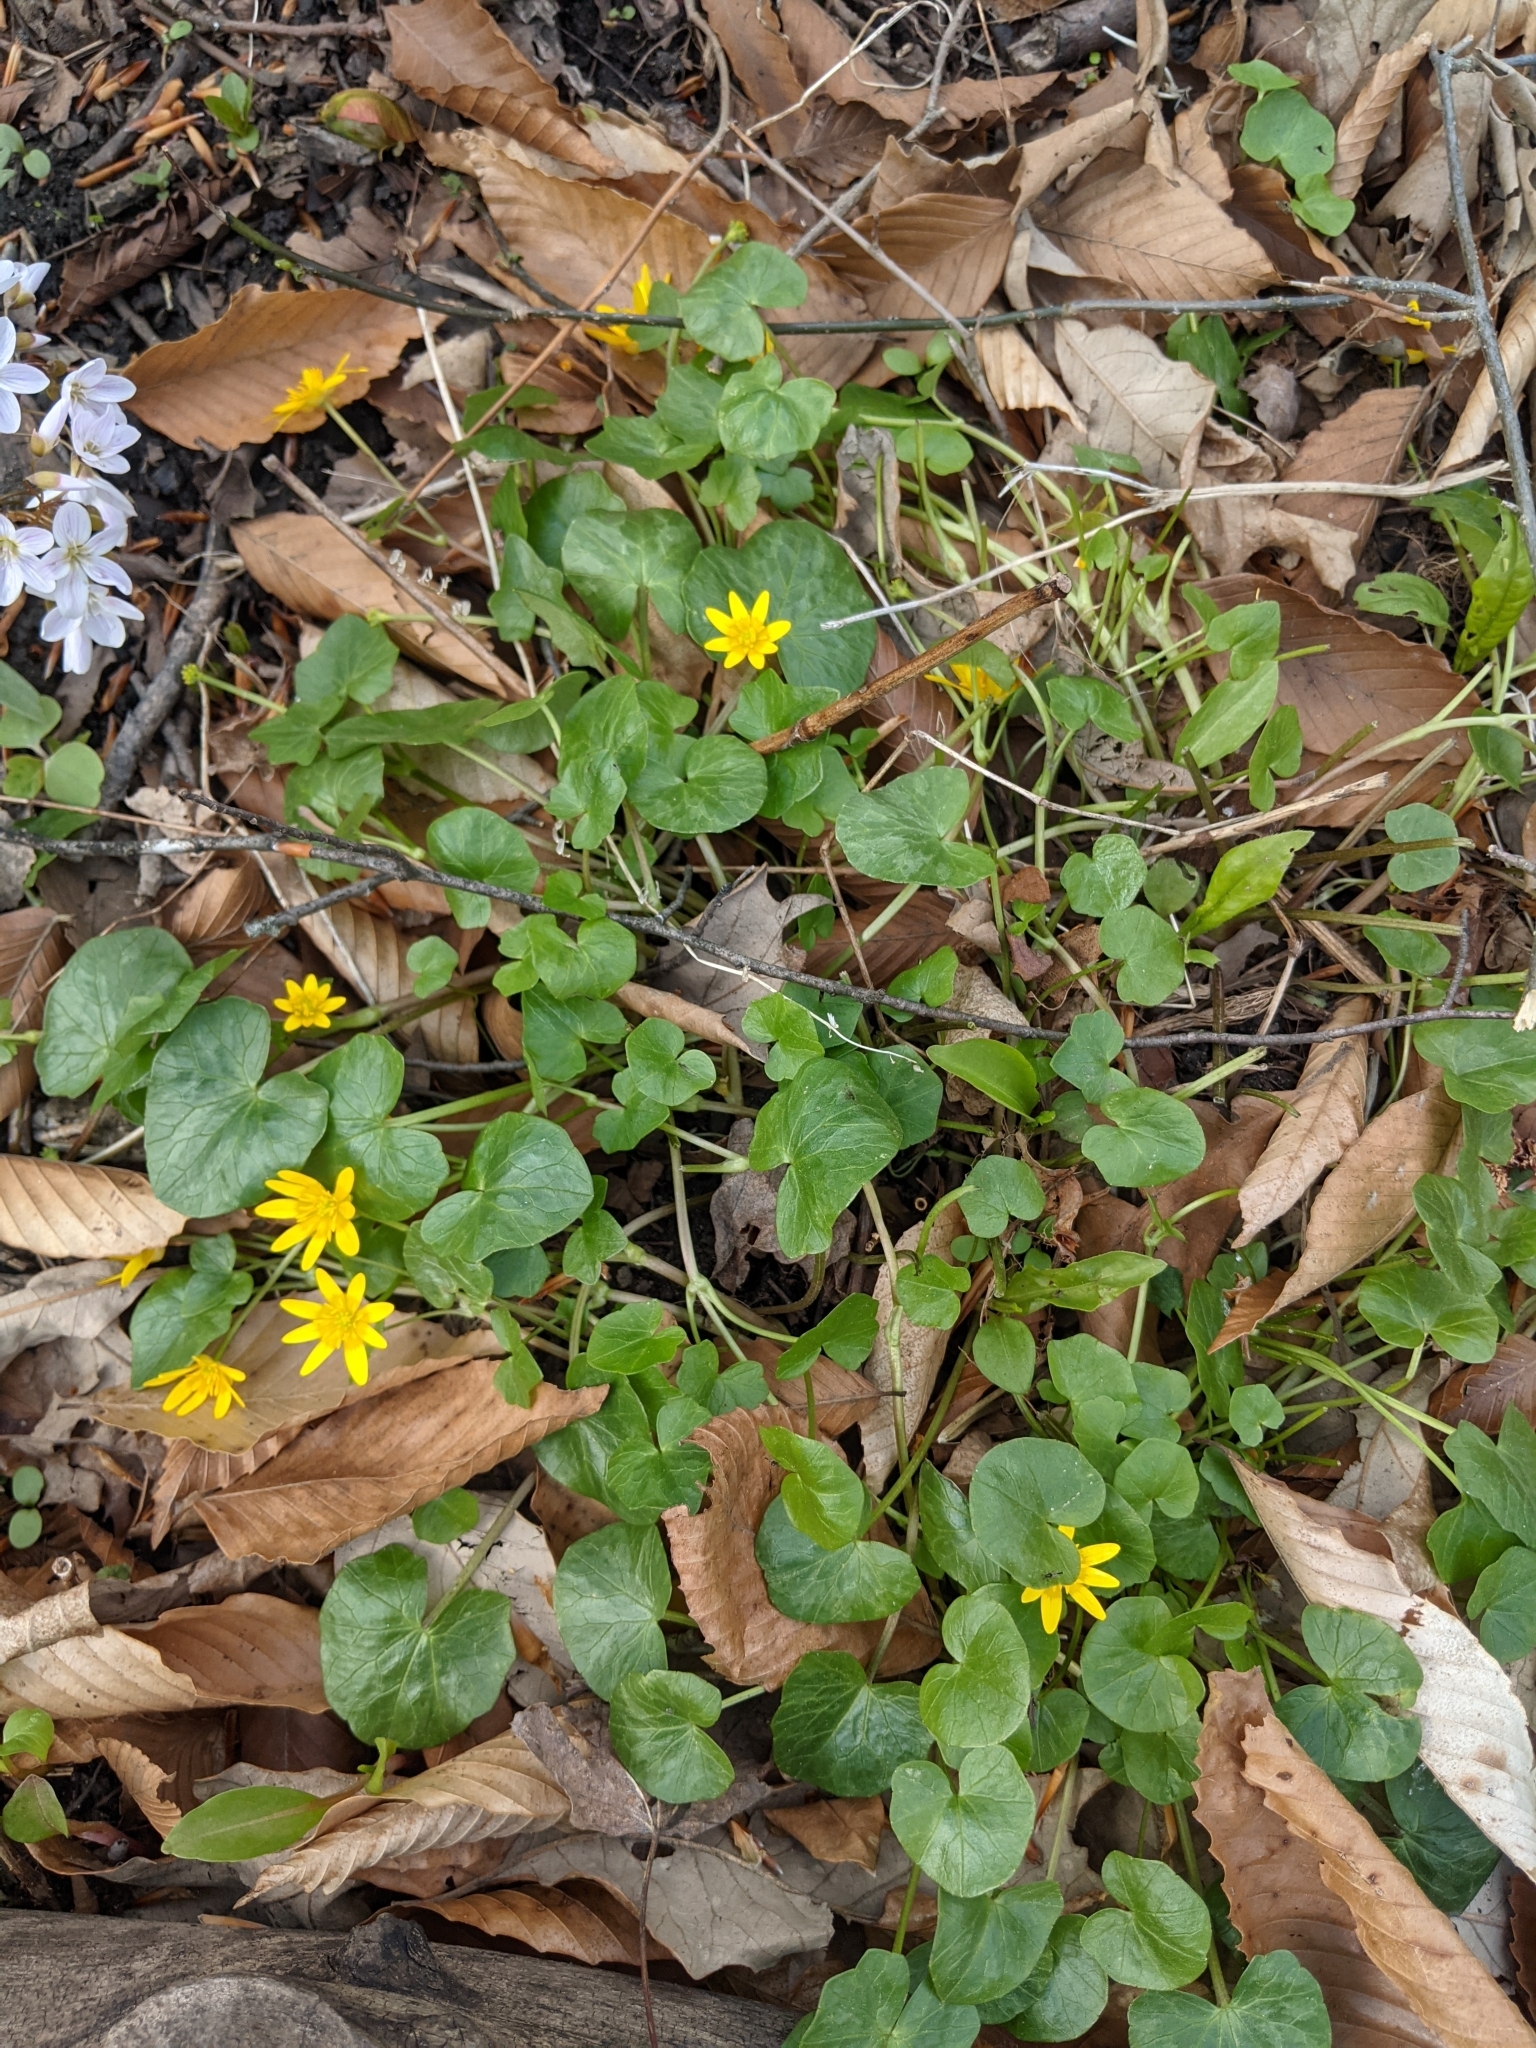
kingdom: Plantae
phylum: Tracheophyta
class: Magnoliopsida
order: Ranunculales
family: Ranunculaceae
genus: Ficaria
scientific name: Ficaria verna
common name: Lesser celandine
